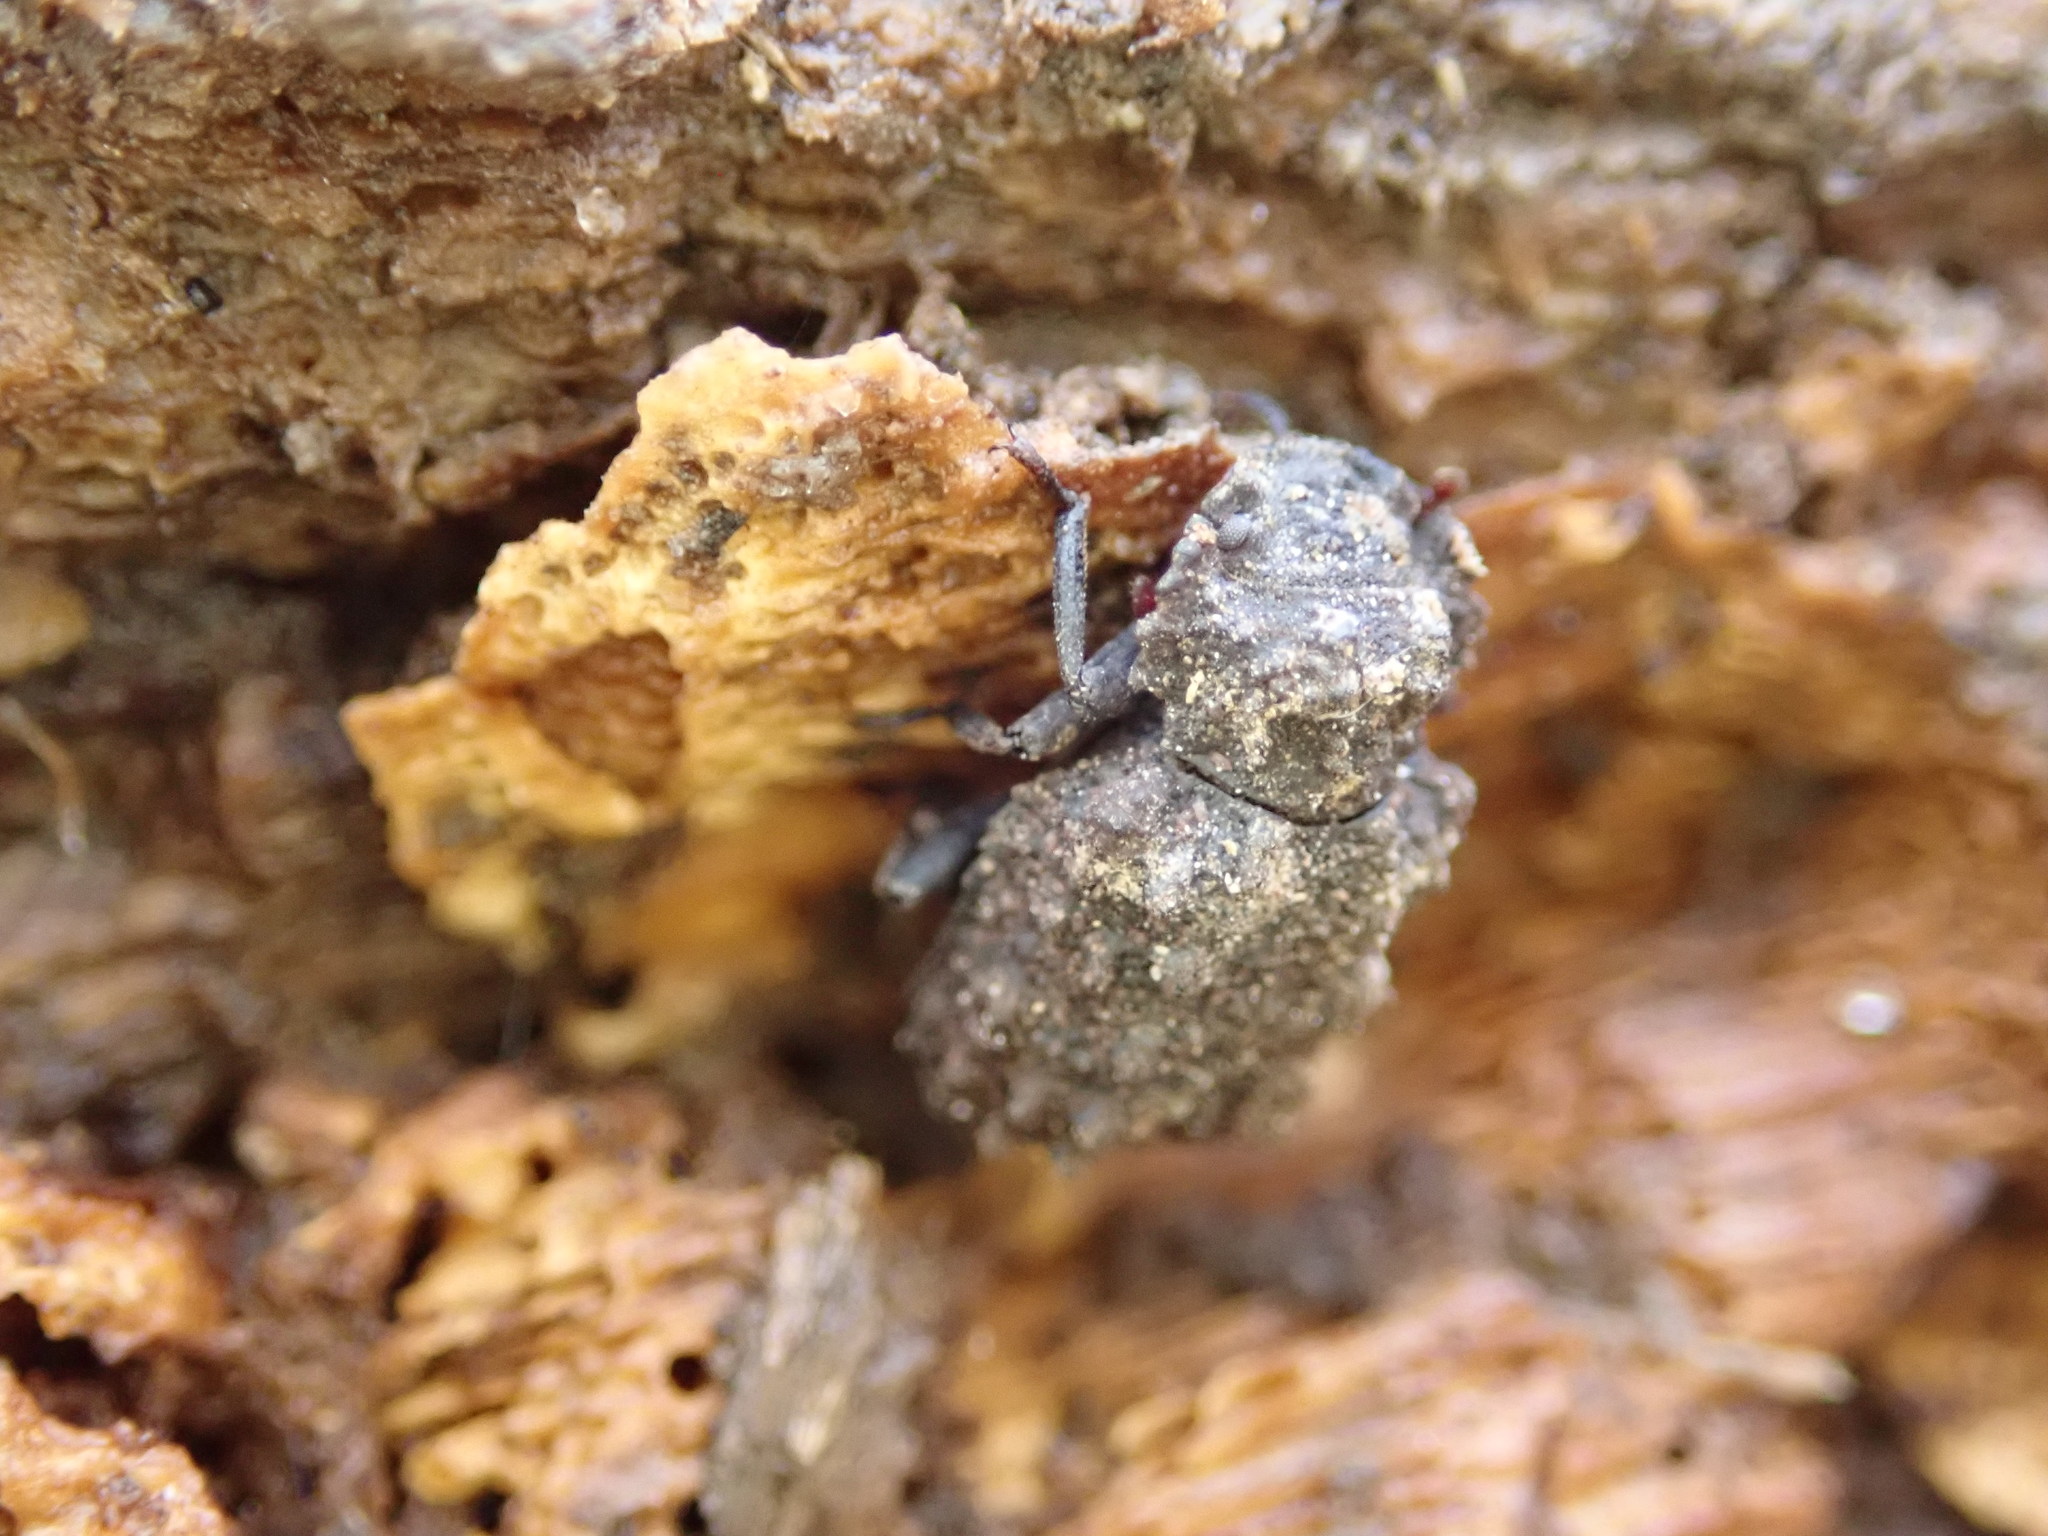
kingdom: Animalia
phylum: Arthropoda
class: Insecta
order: Coleoptera
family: Tenebrionidae
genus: Bolitophagus
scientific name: Bolitophagus corticola
